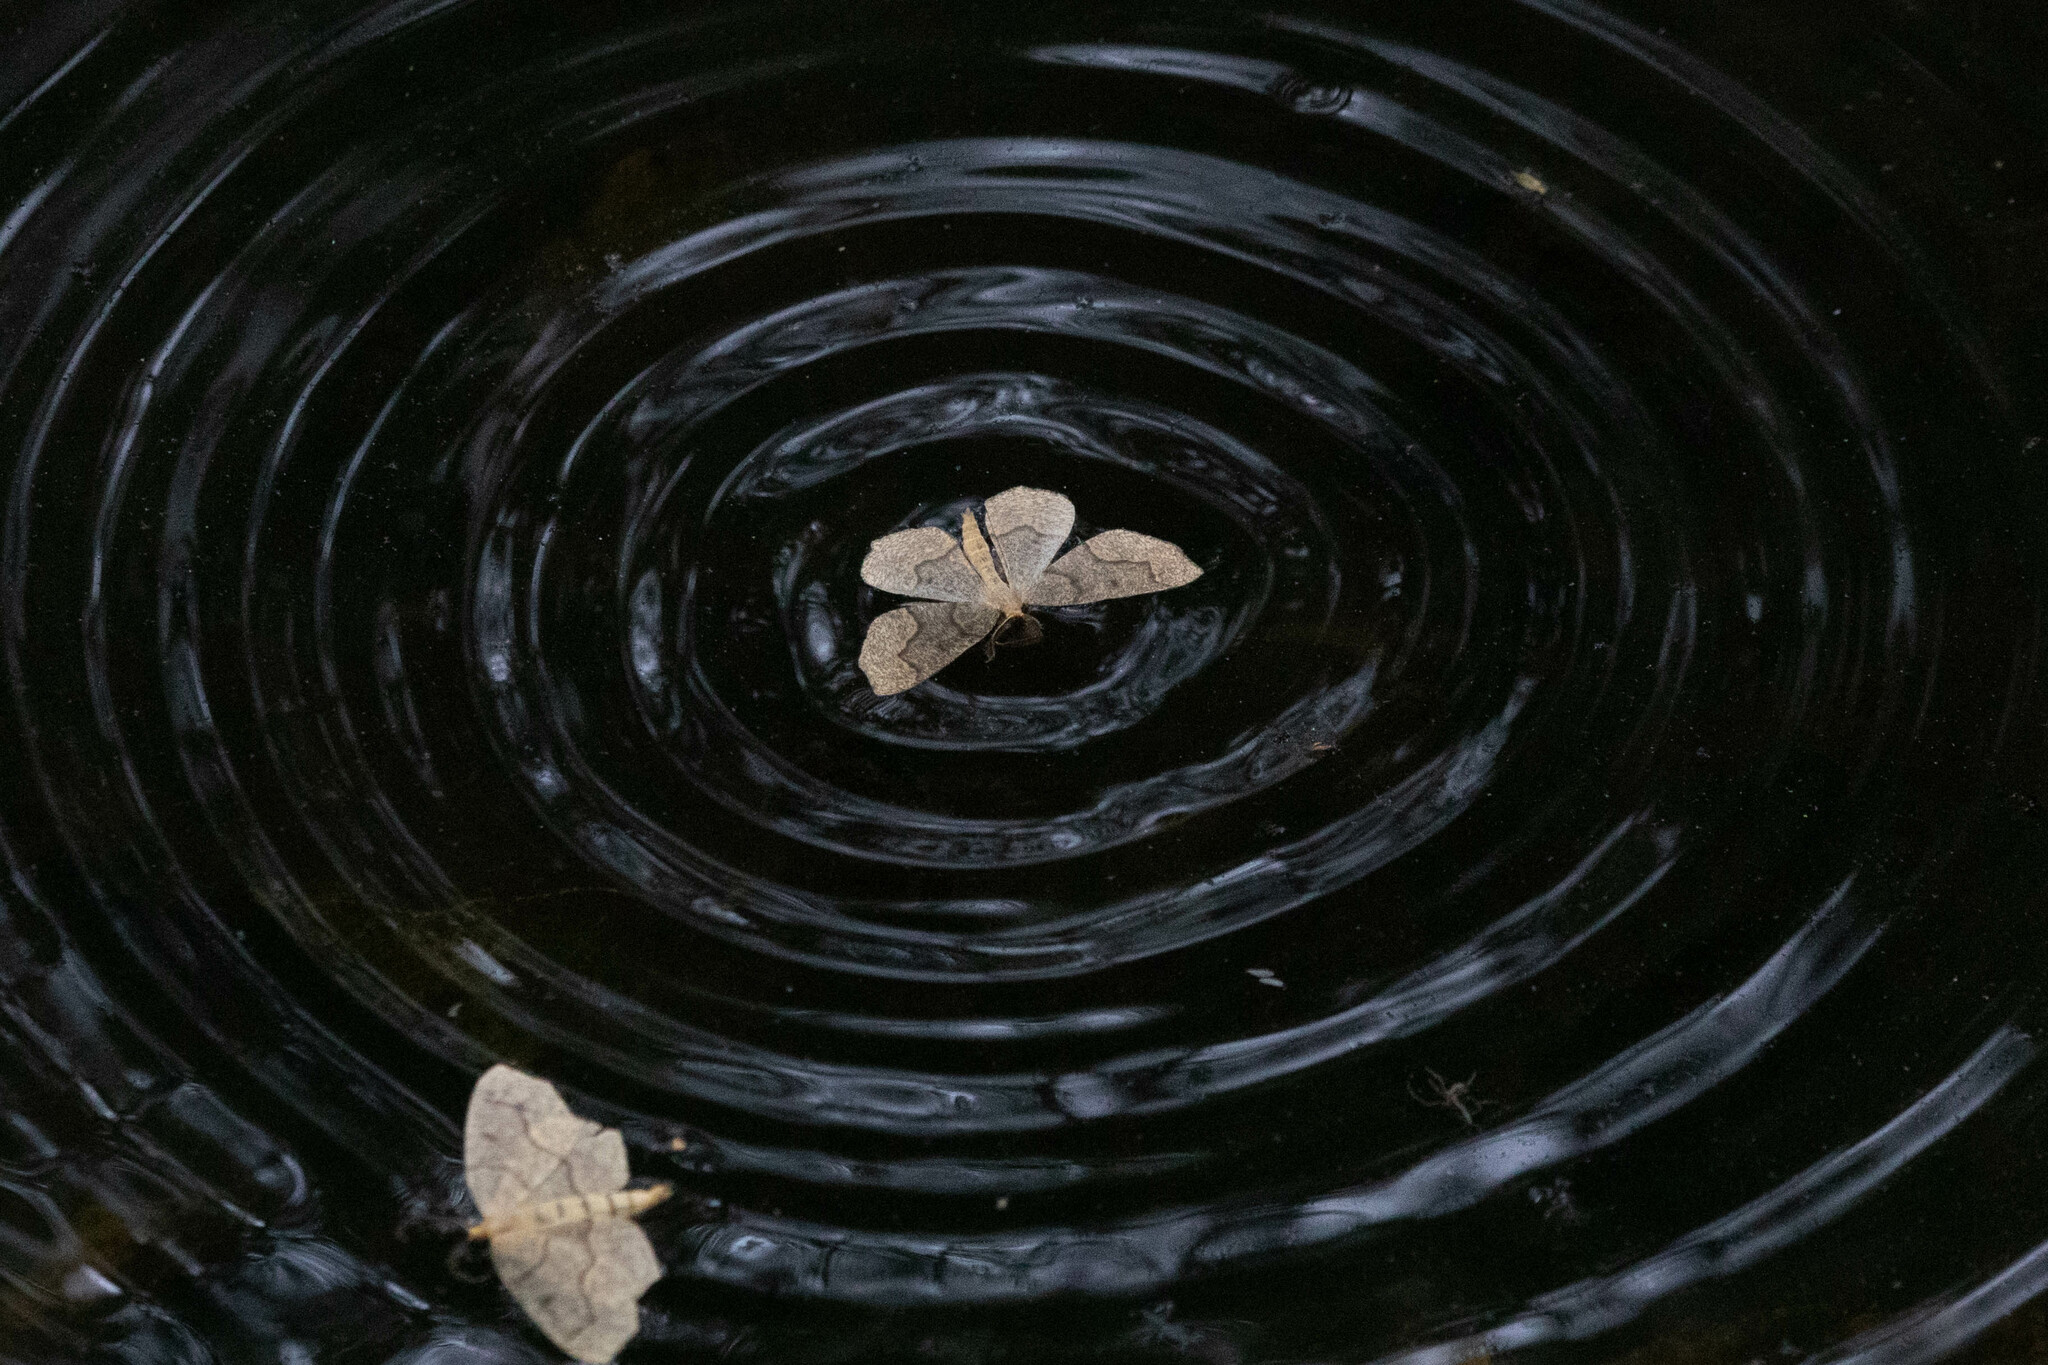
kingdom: Animalia
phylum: Arthropoda
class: Insecta
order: Lepidoptera
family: Geometridae
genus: Lambdina
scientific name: Lambdina fiscellaria
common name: Hemlock looper
